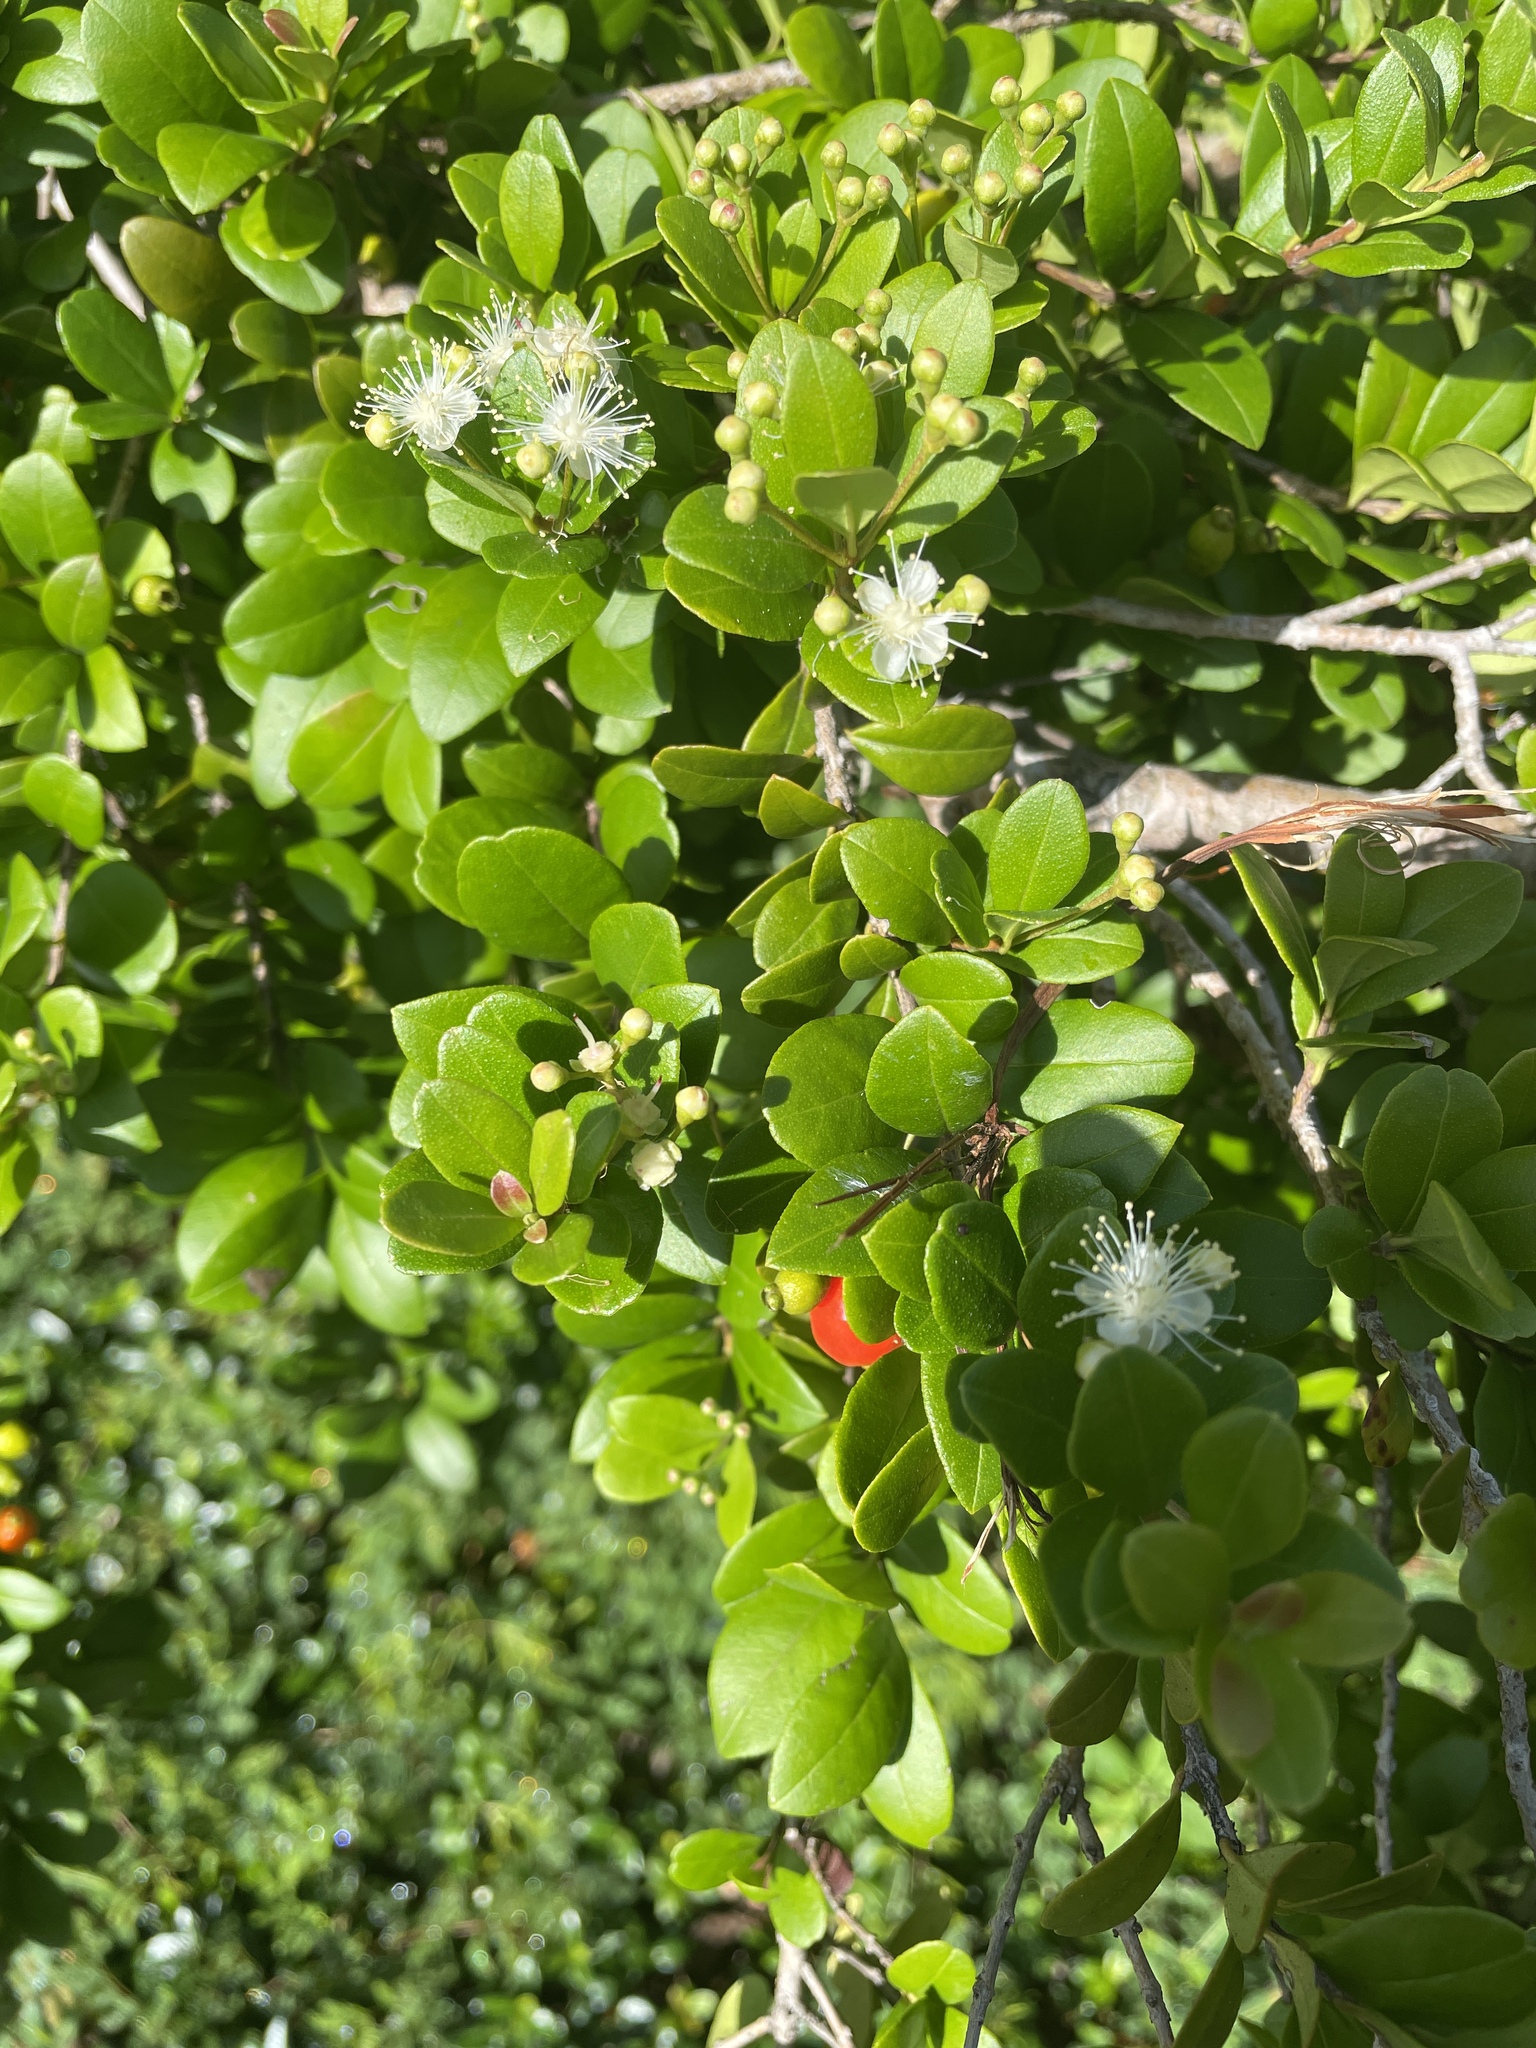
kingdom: Plantae
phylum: Tracheophyta
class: Magnoliopsida
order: Myrtales
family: Myrtaceae
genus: Myrcianthes
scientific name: Myrcianthes fragrans
